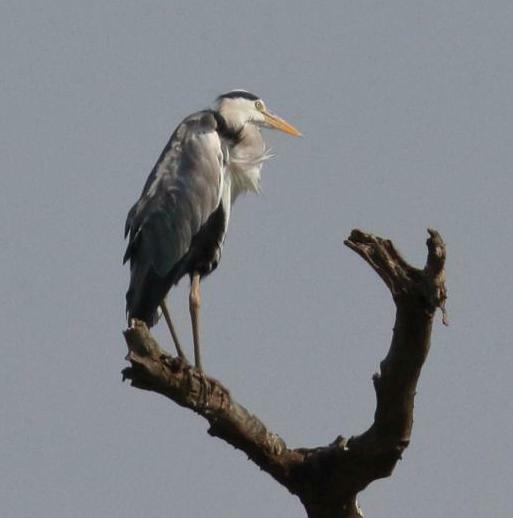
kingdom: Animalia
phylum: Chordata
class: Aves
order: Pelecaniformes
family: Ardeidae
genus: Ardea
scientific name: Ardea cinerea
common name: Grey heron
